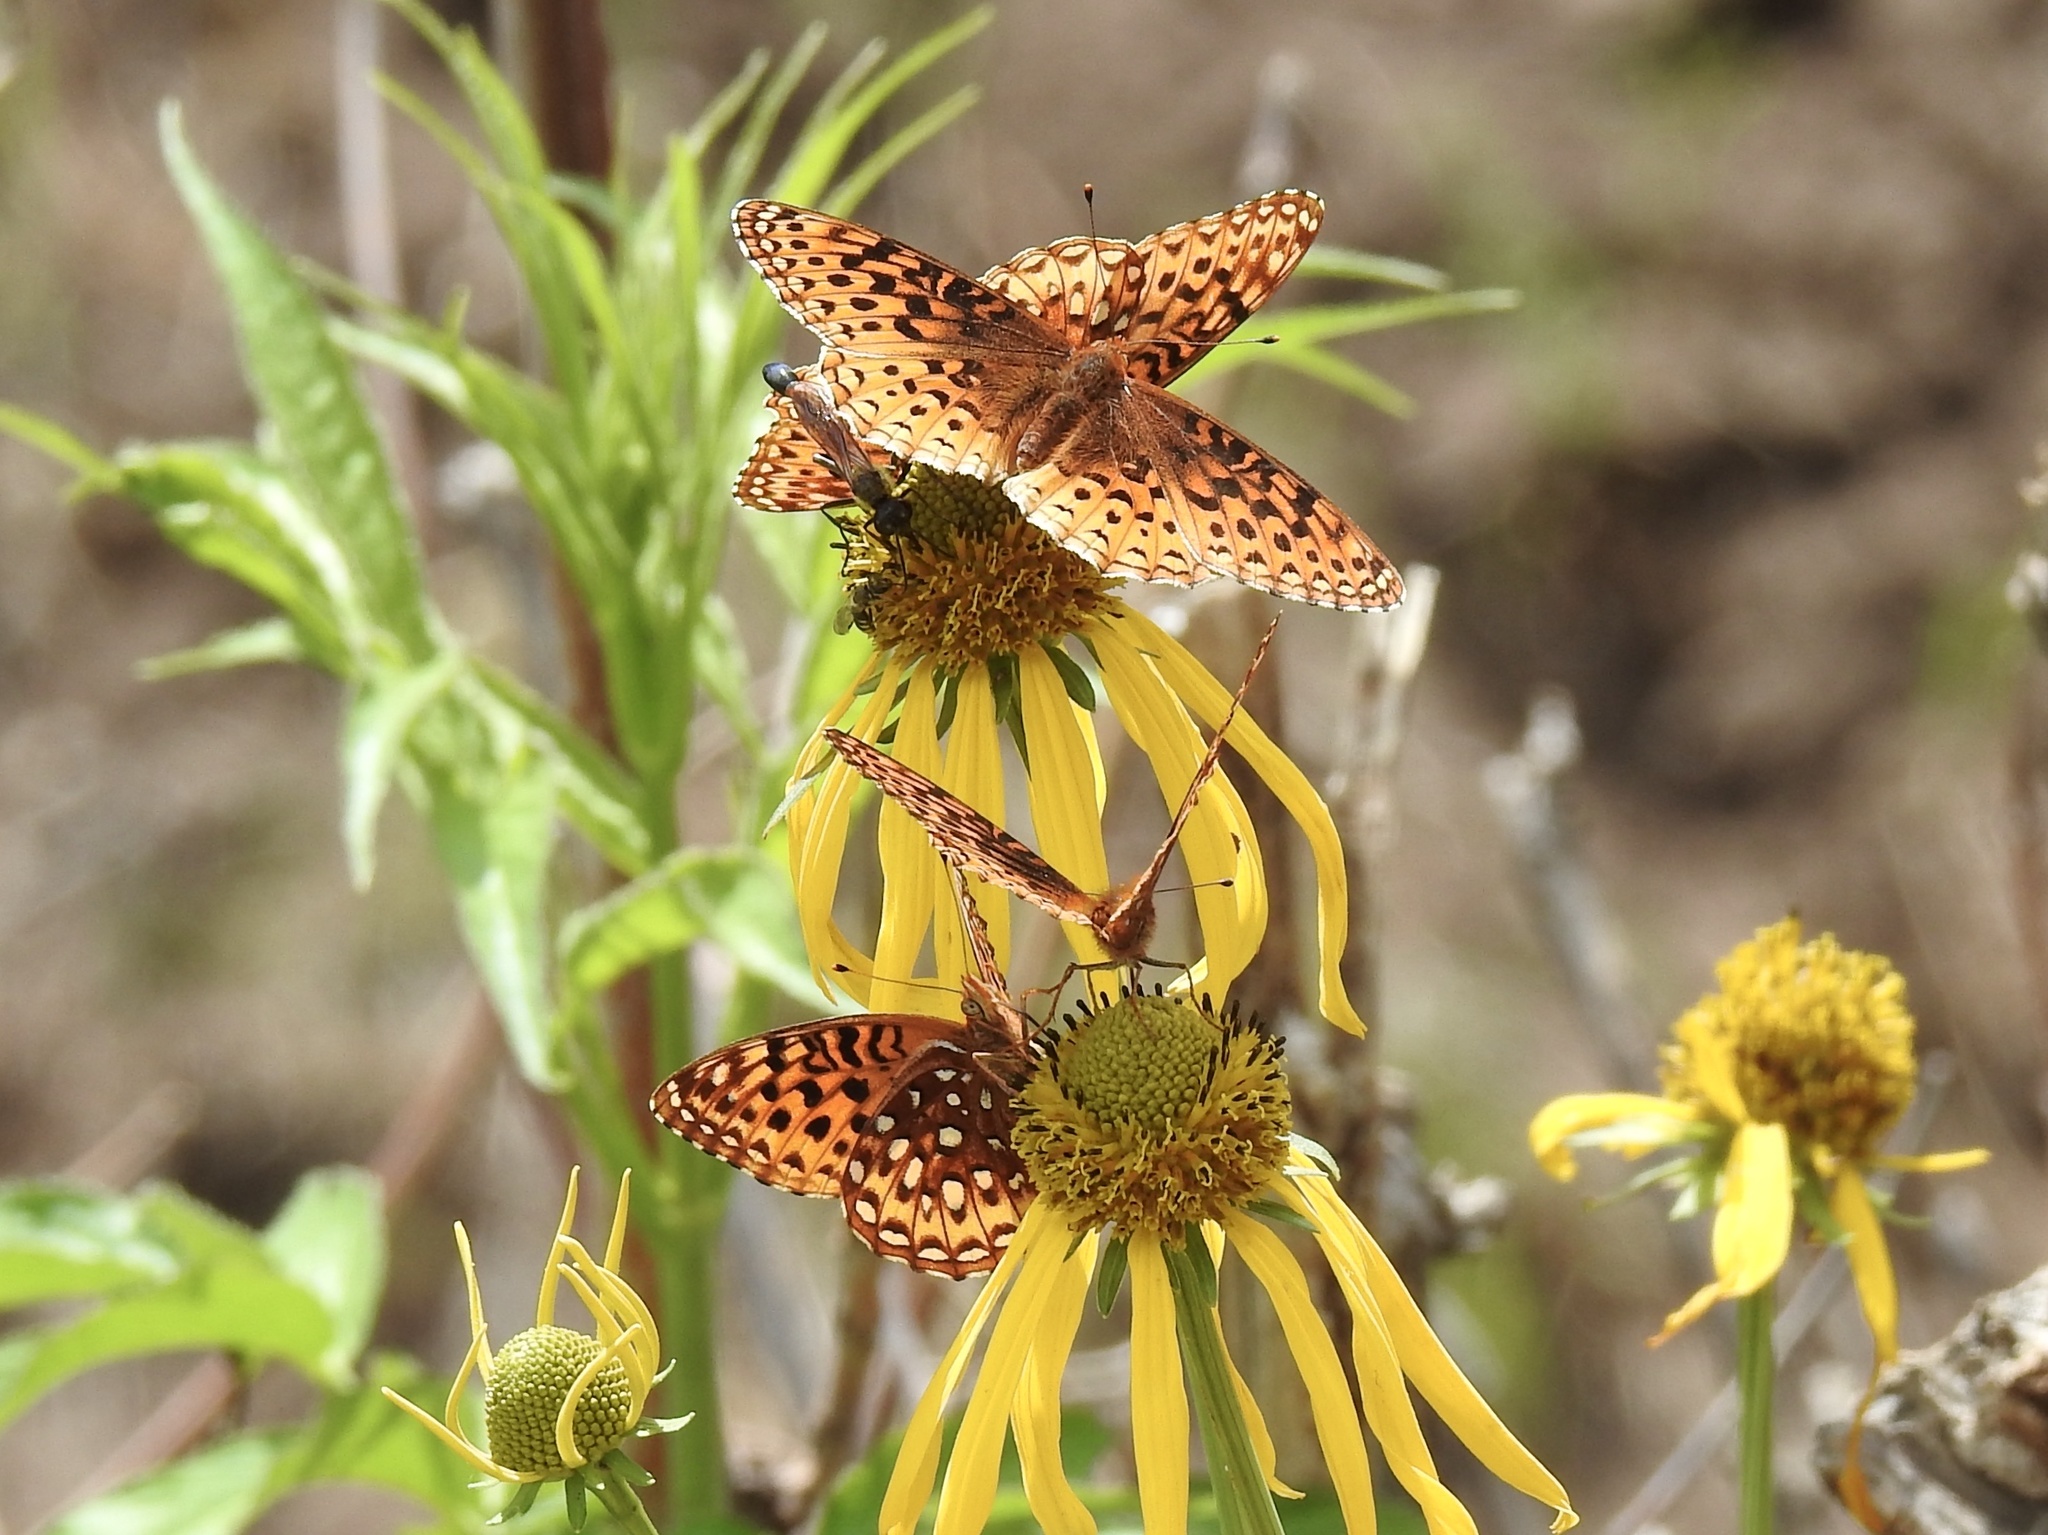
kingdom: Animalia
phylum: Arthropoda
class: Insecta
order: Lepidoptera
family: Nymphalidae
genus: Speyeria
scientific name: Speyeria atlantis
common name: Atlantis fritillary
